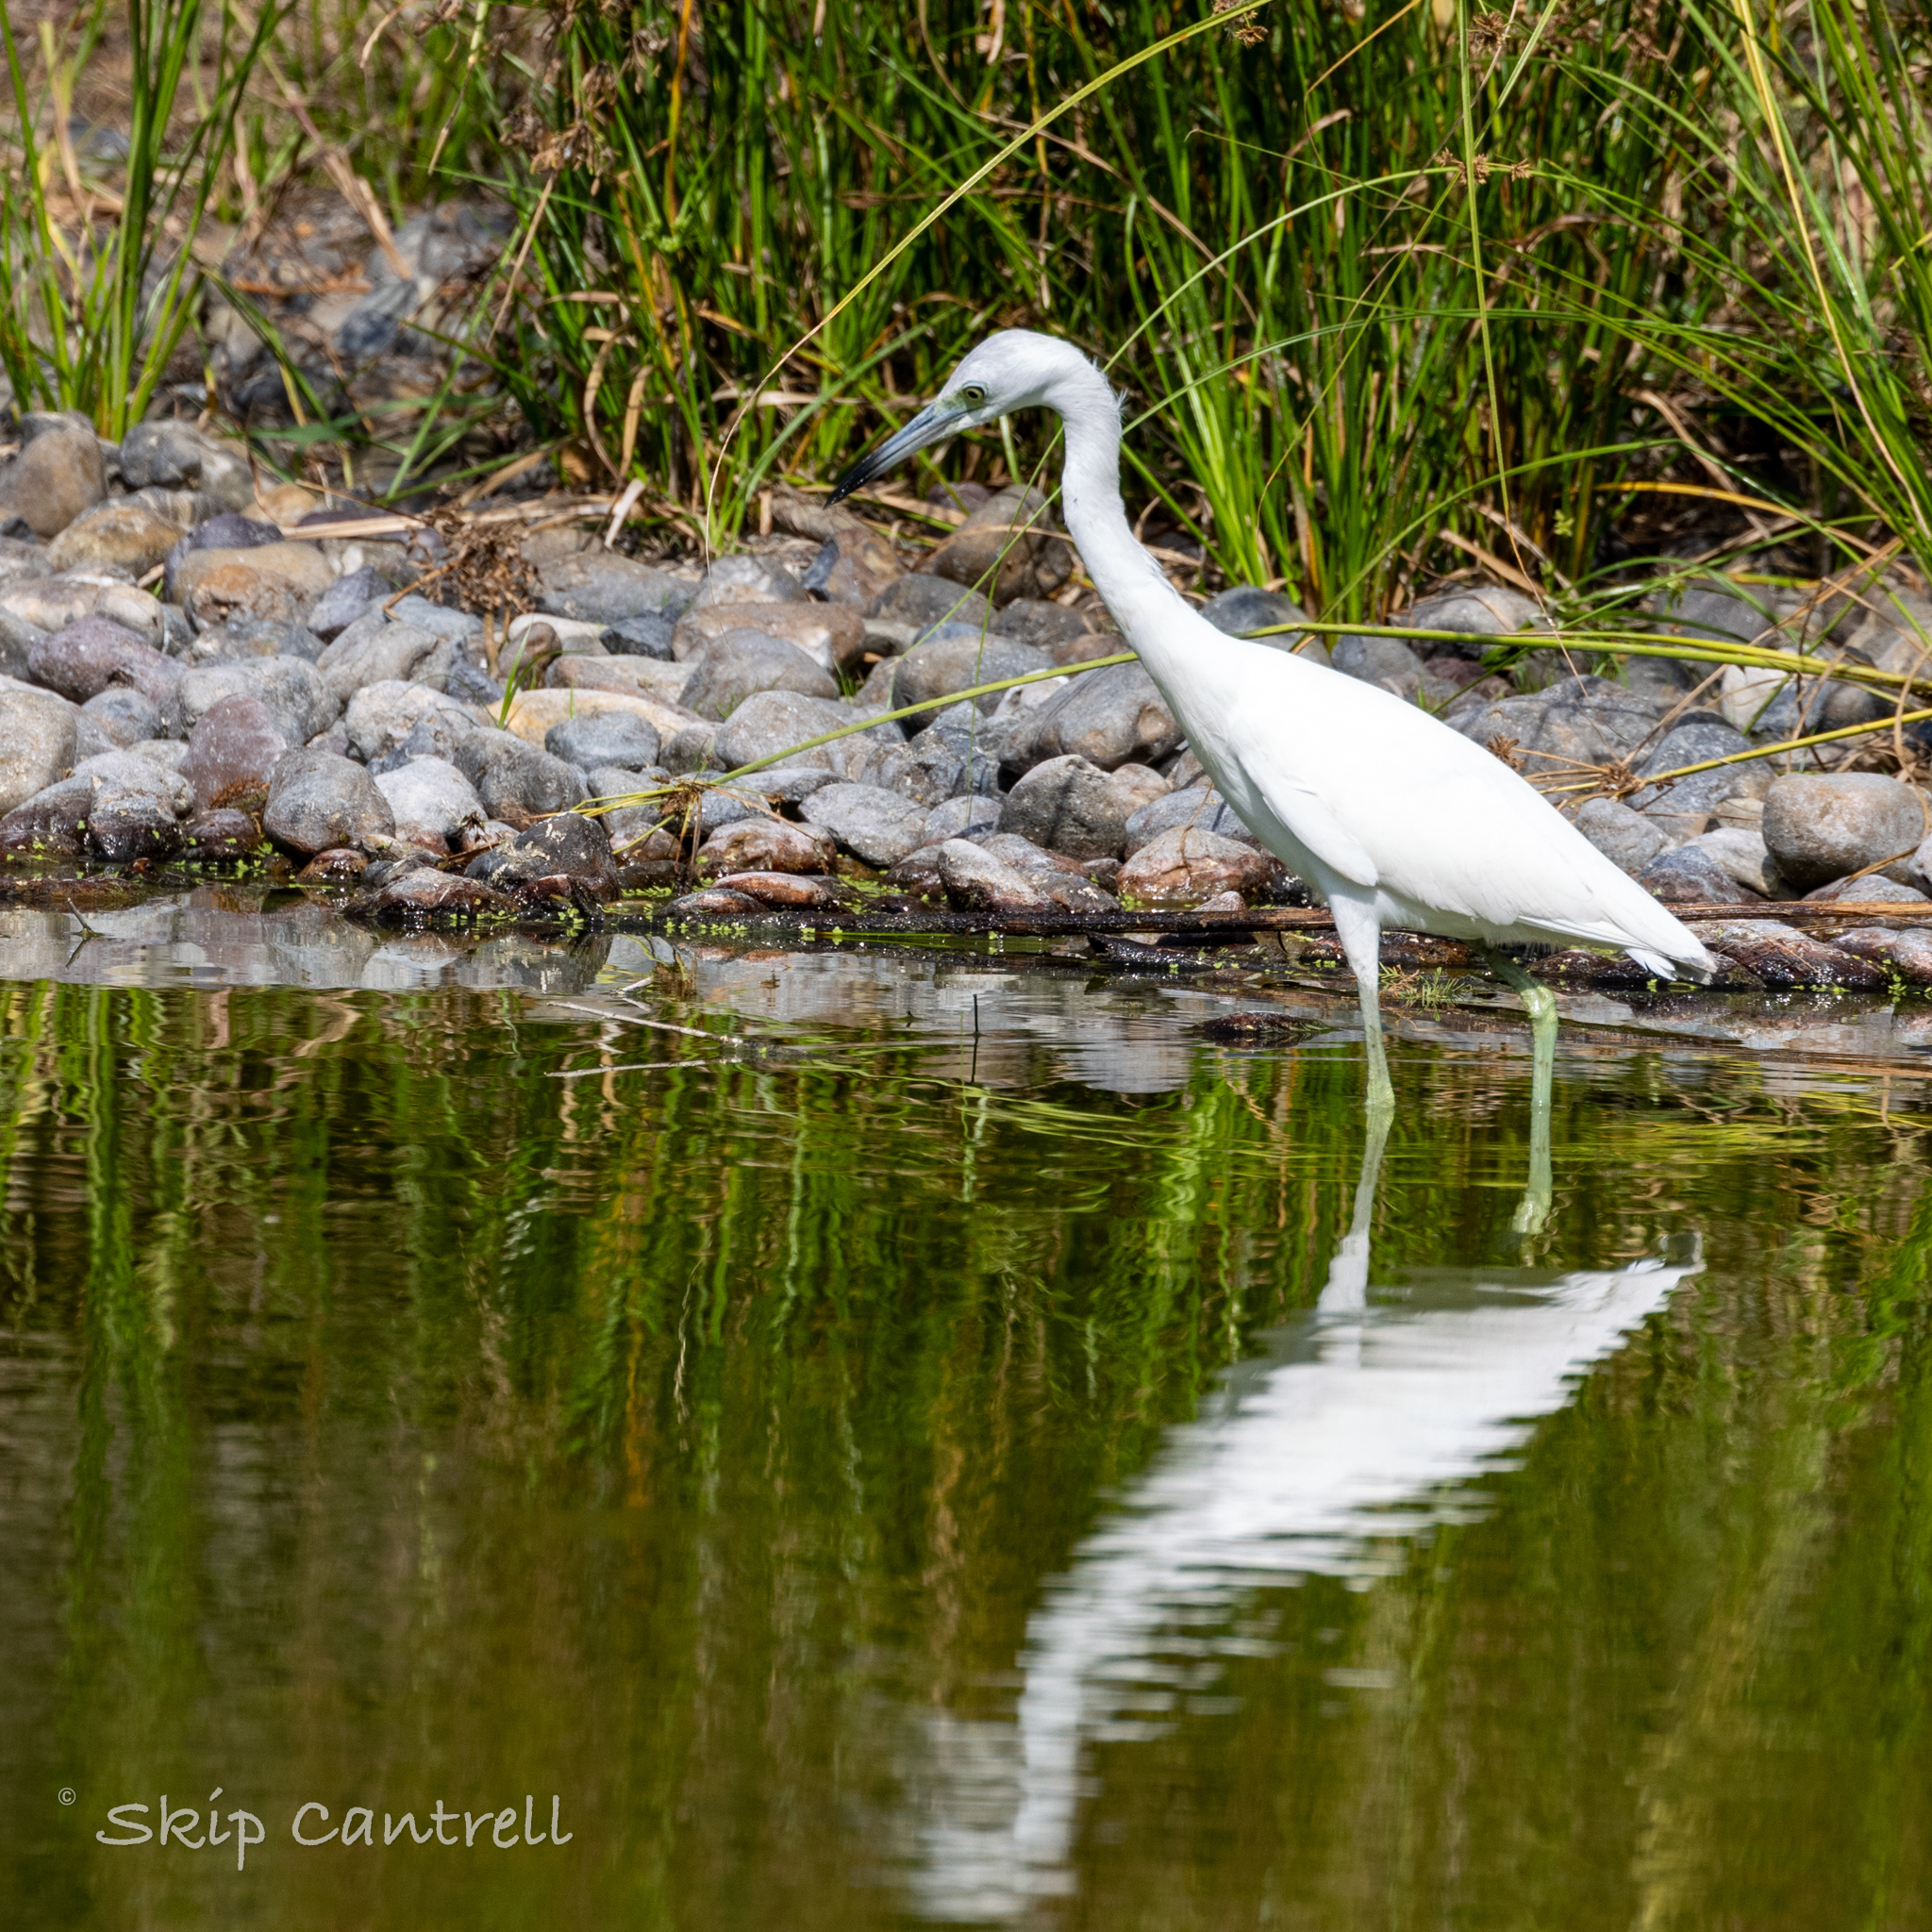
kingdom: Animalia
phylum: Chordata
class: Aves
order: Pelecaniformes
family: Ardeidae
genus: Egretta
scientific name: Egretta caerulea
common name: Little blue heron
